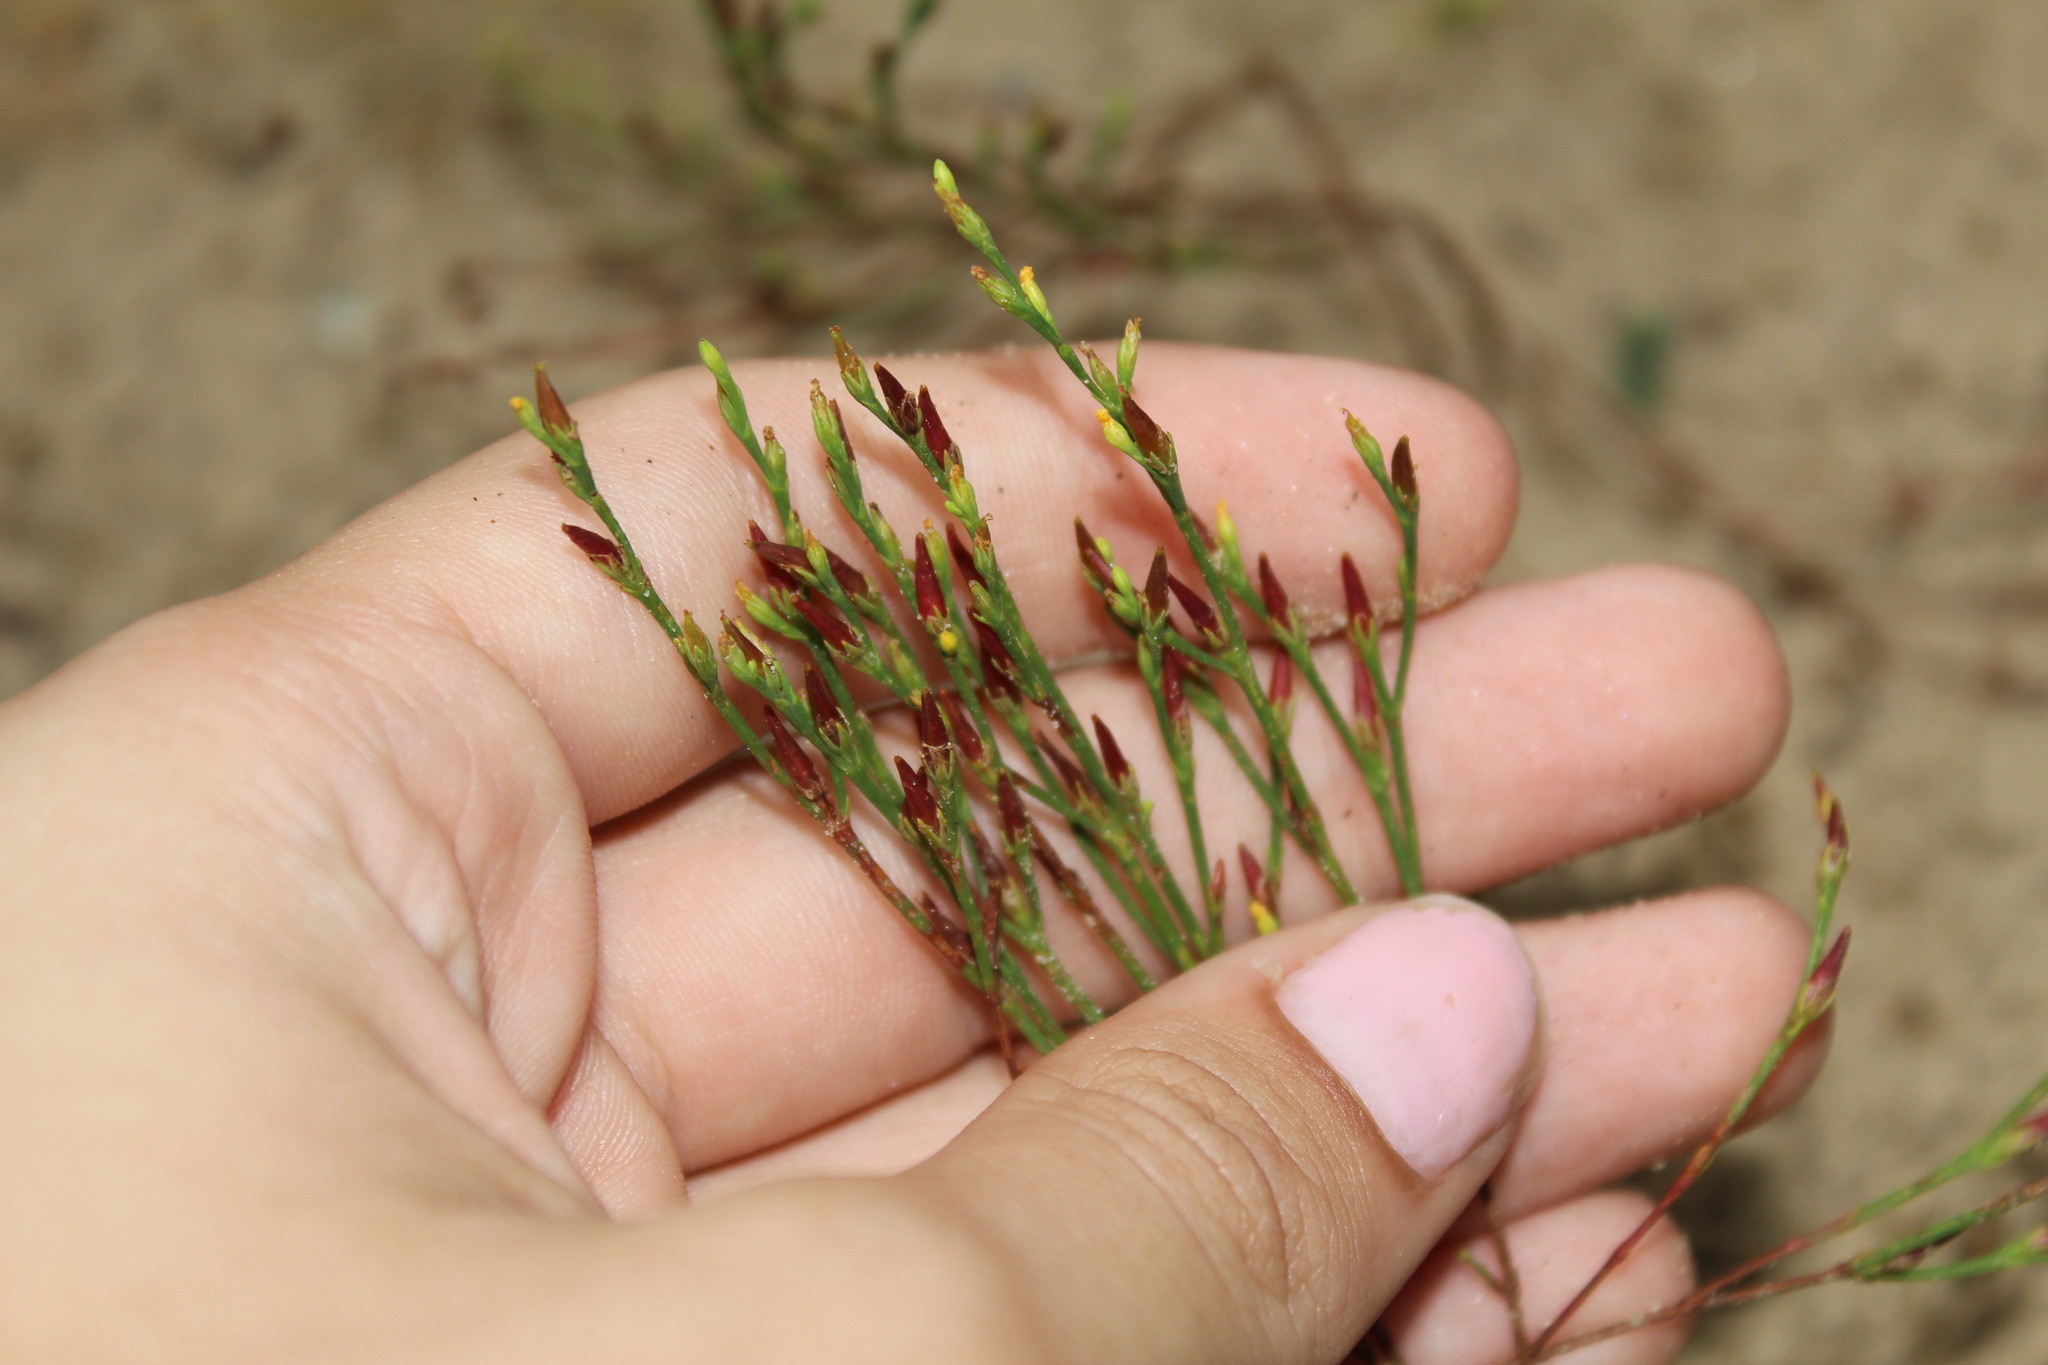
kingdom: Plantae
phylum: Tracheophyta
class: Magnoliopsida
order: Malpighiales
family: Hypericaceae
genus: Hypericum
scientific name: Hypericum gentianoides
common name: Gentian-leaved st. john's-wort
